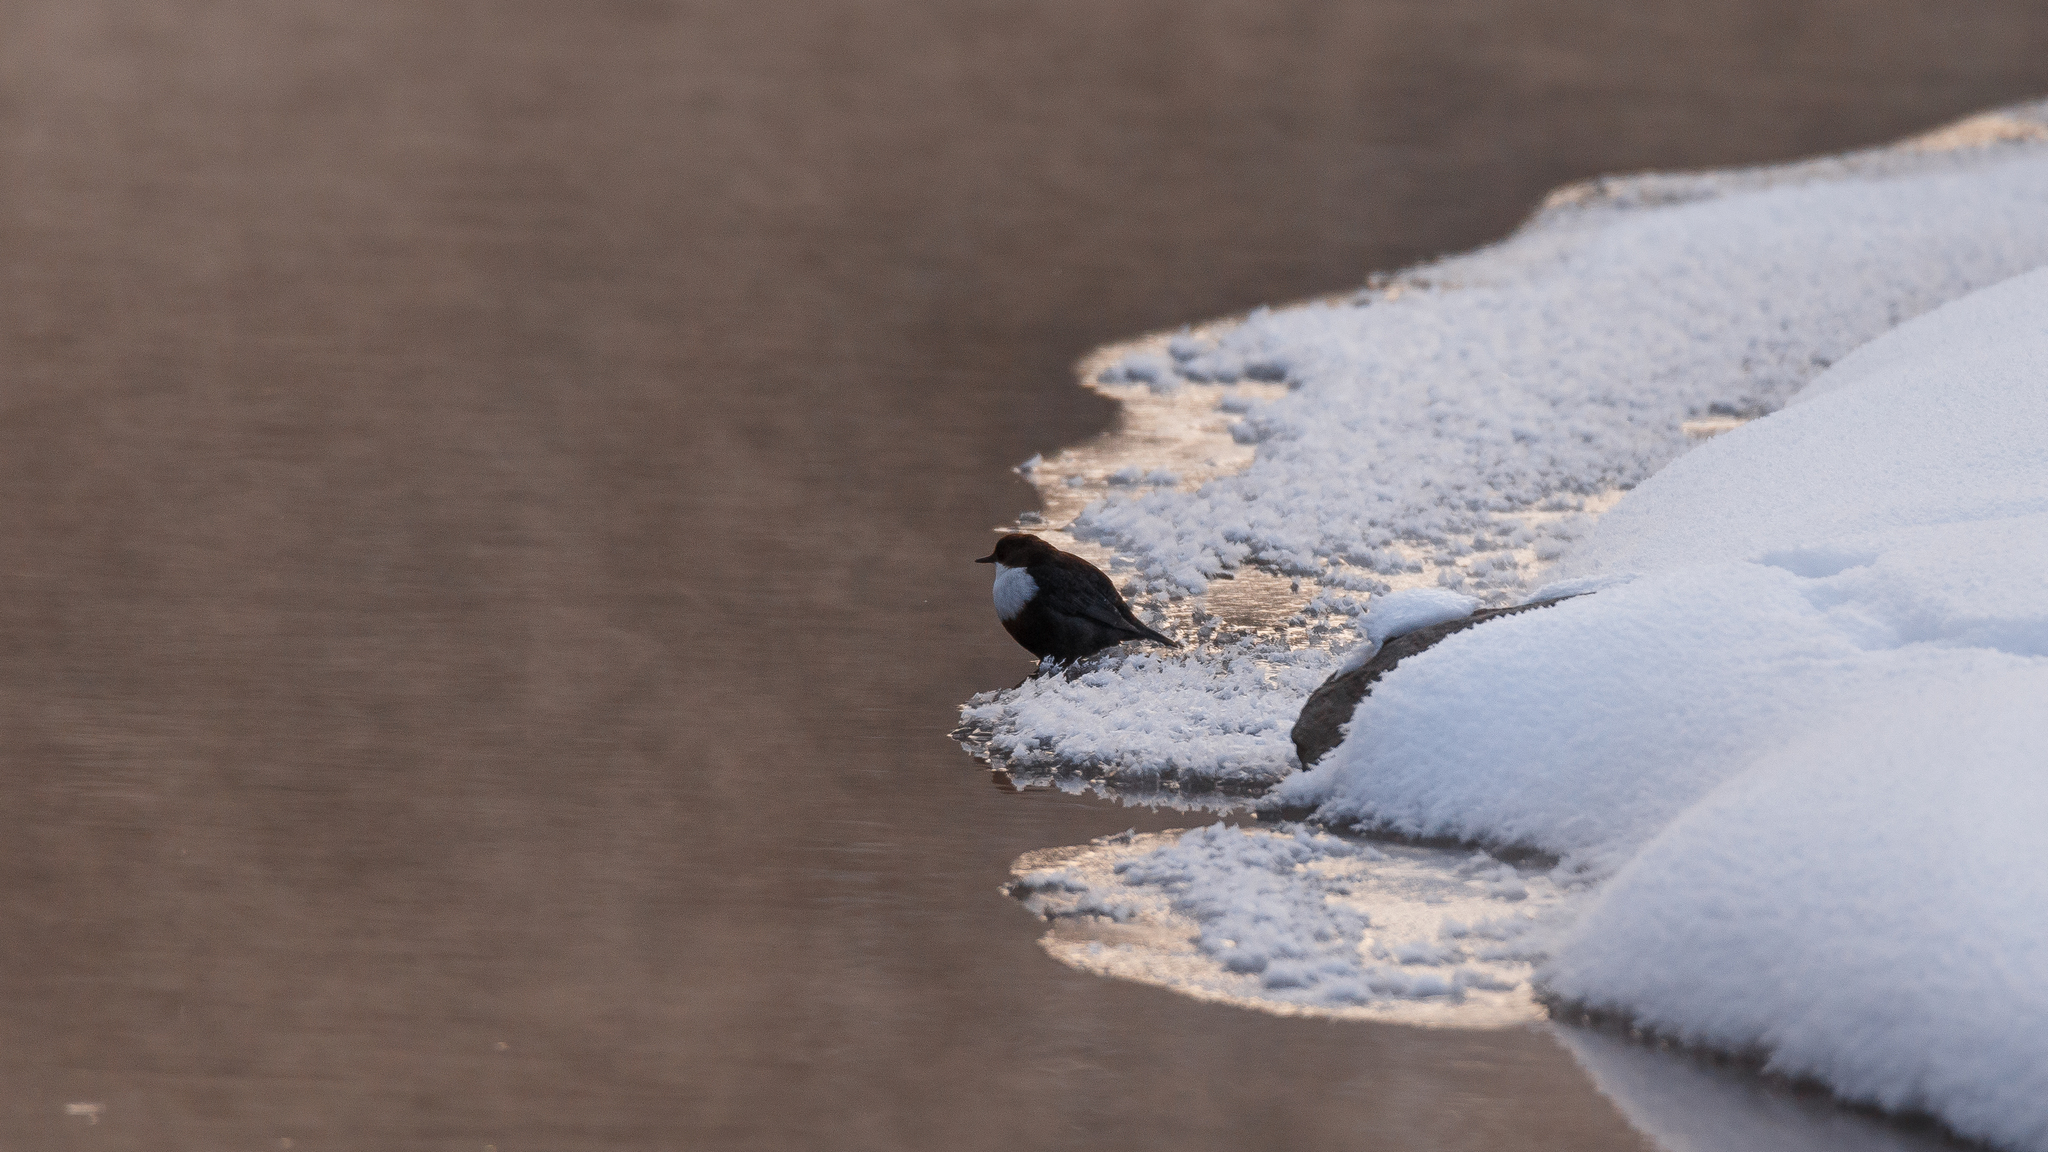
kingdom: Animalia
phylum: Chordata
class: Aves
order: Passeriformes
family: Cinclidae
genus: Cinclus
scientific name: Cinclus cinclus
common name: White-throated dipper
